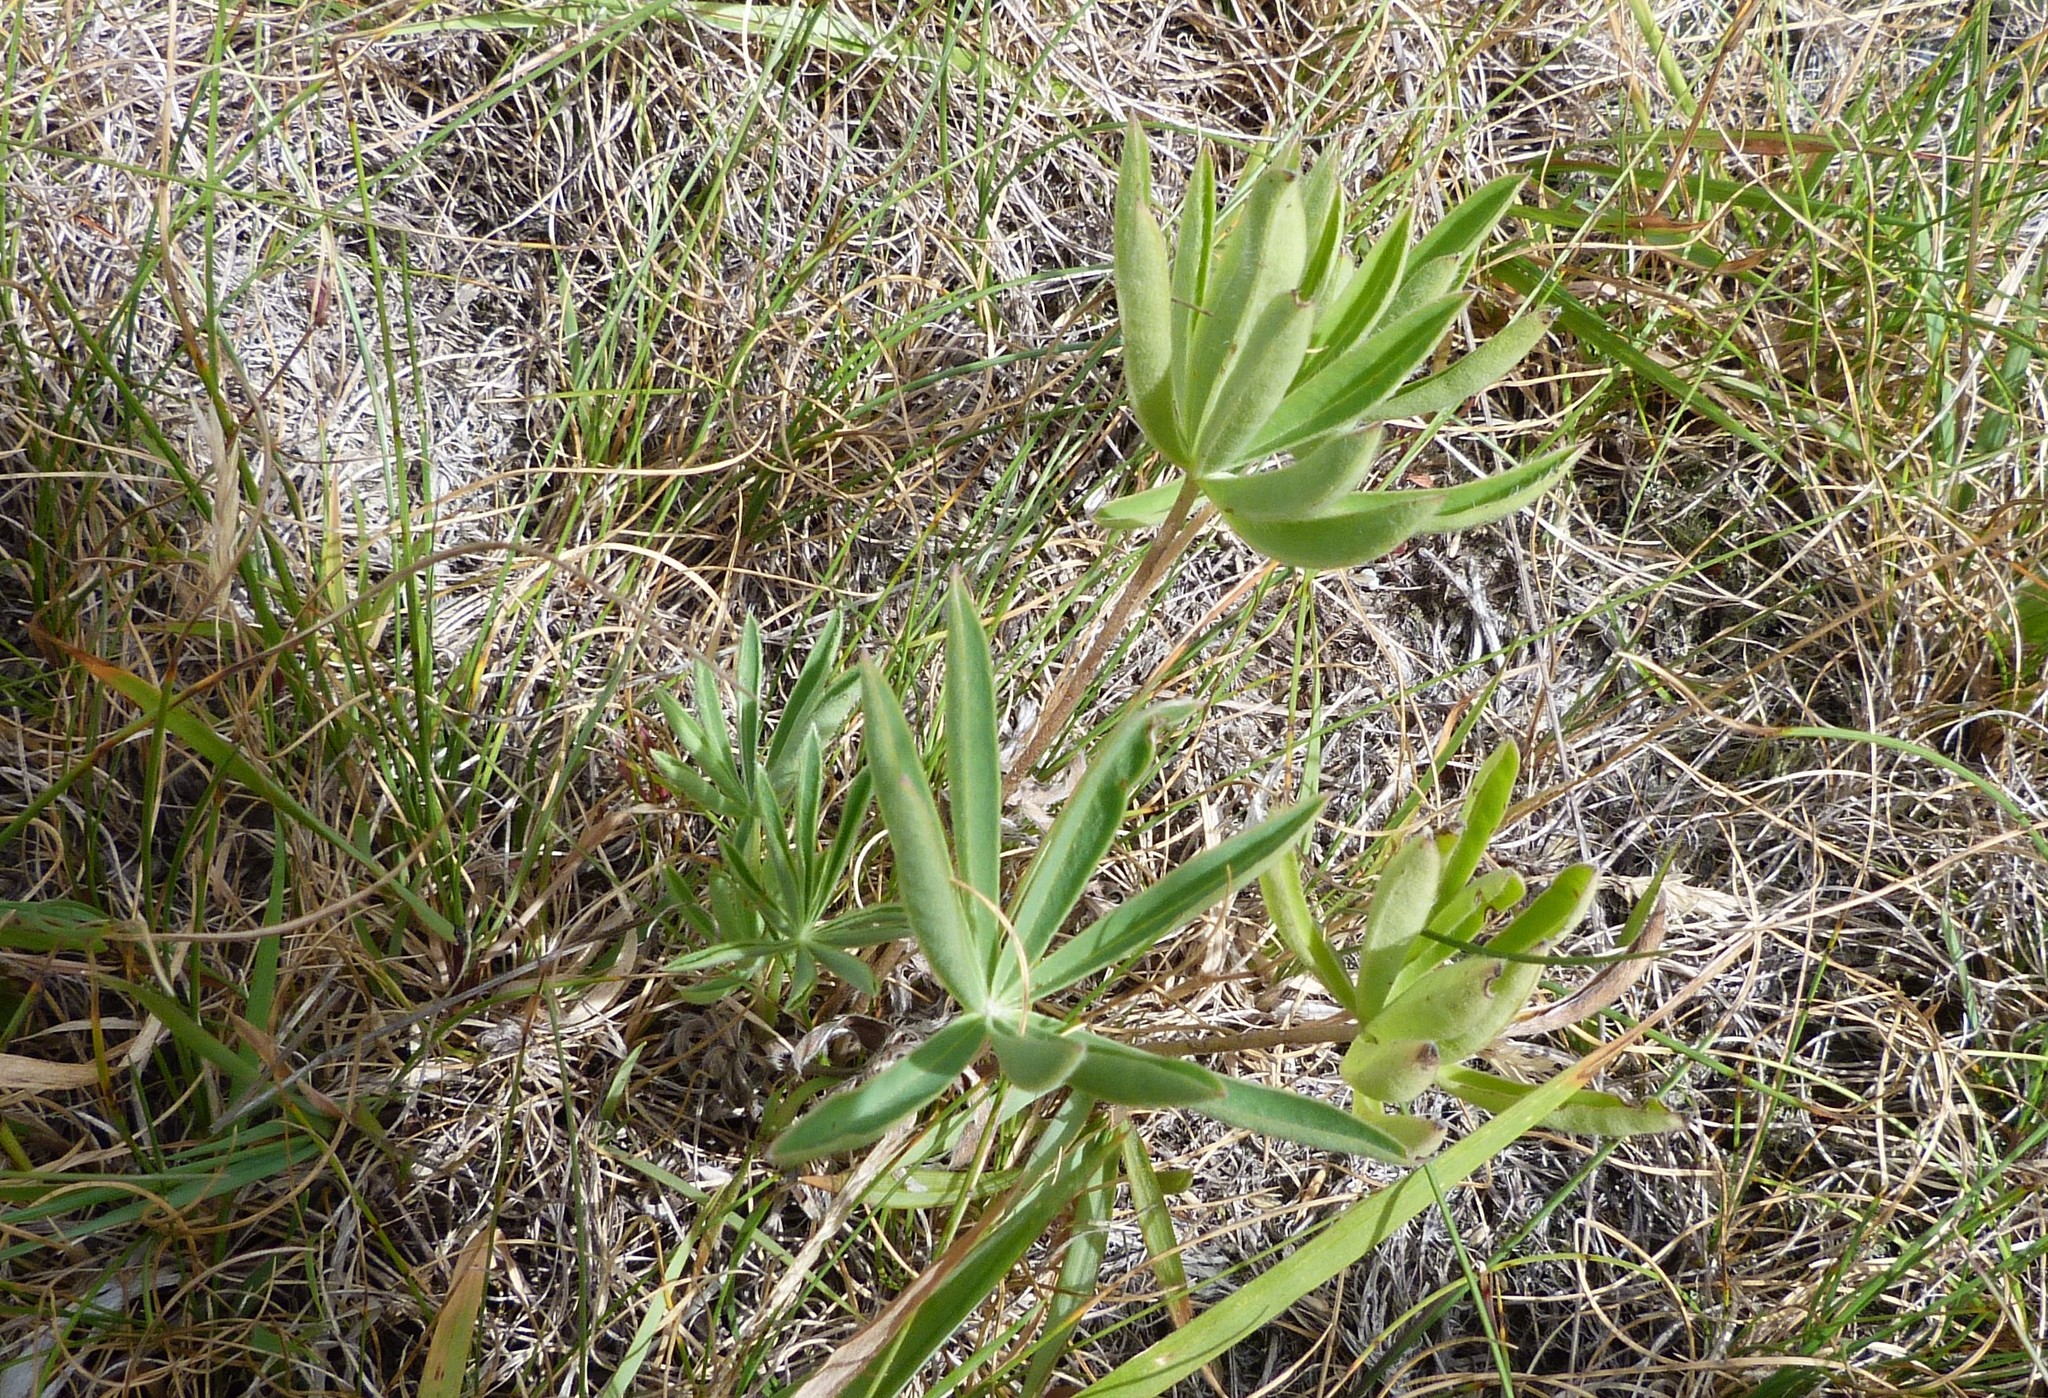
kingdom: Plantae
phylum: Tracheophyta
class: Magnoliopsida
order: Fabales
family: Fabaceae
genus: Lupinus
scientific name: Lupinus polyphyllus
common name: Garden lupin
